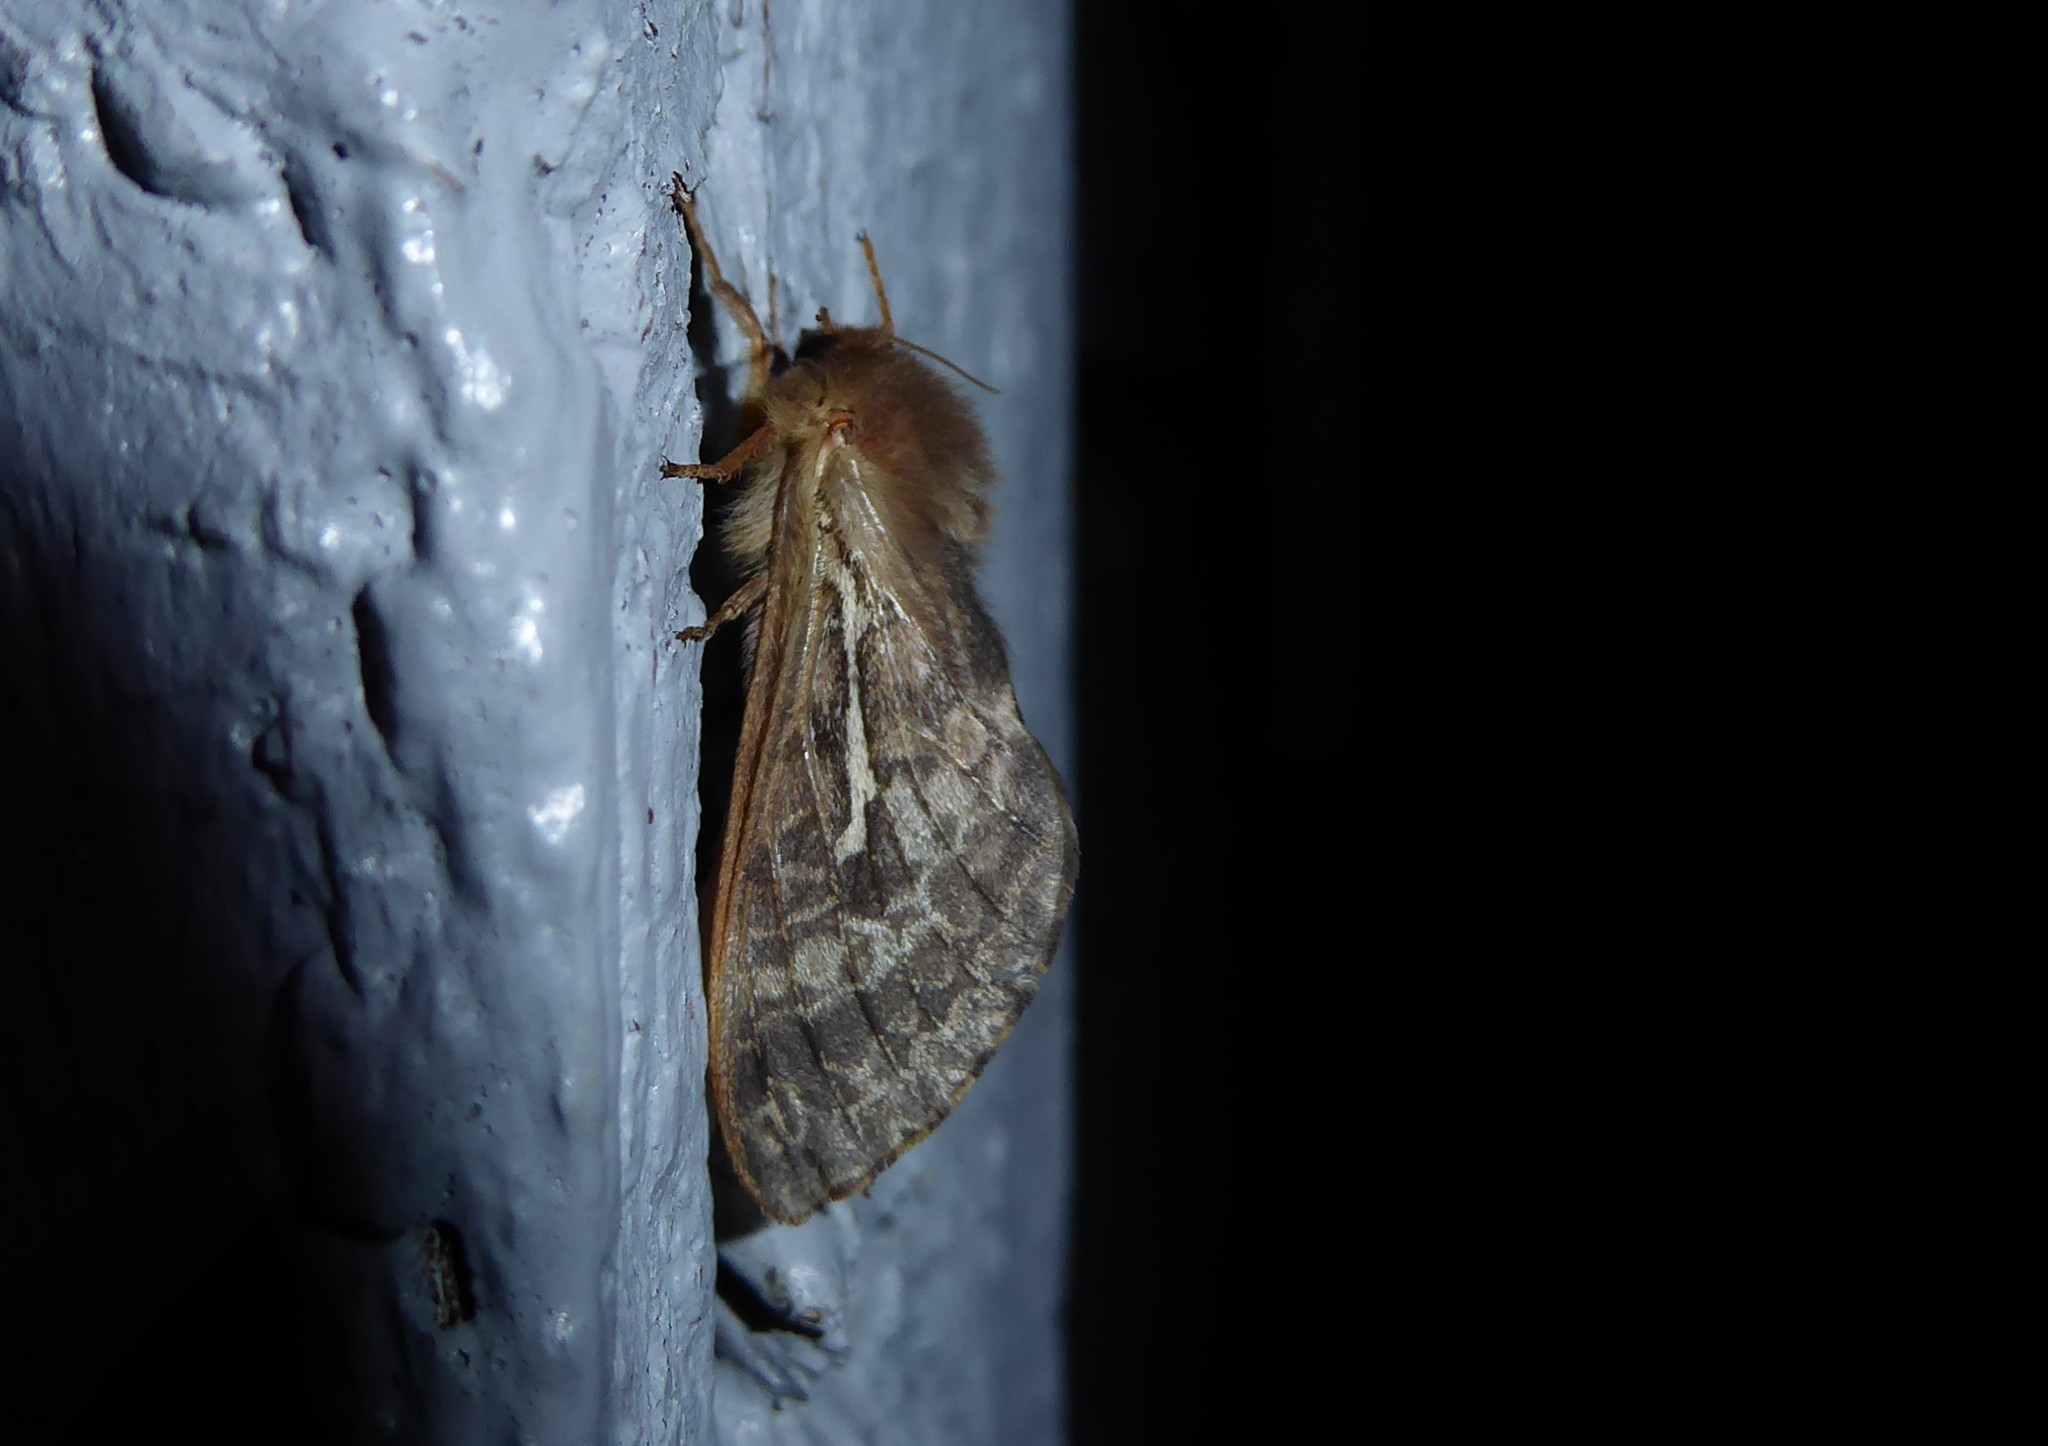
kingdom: Animalia
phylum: Arthropoda
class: Insecta
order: Lepidoptera
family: Hepialidae
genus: Wiseana
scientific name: Wiseana copularis
